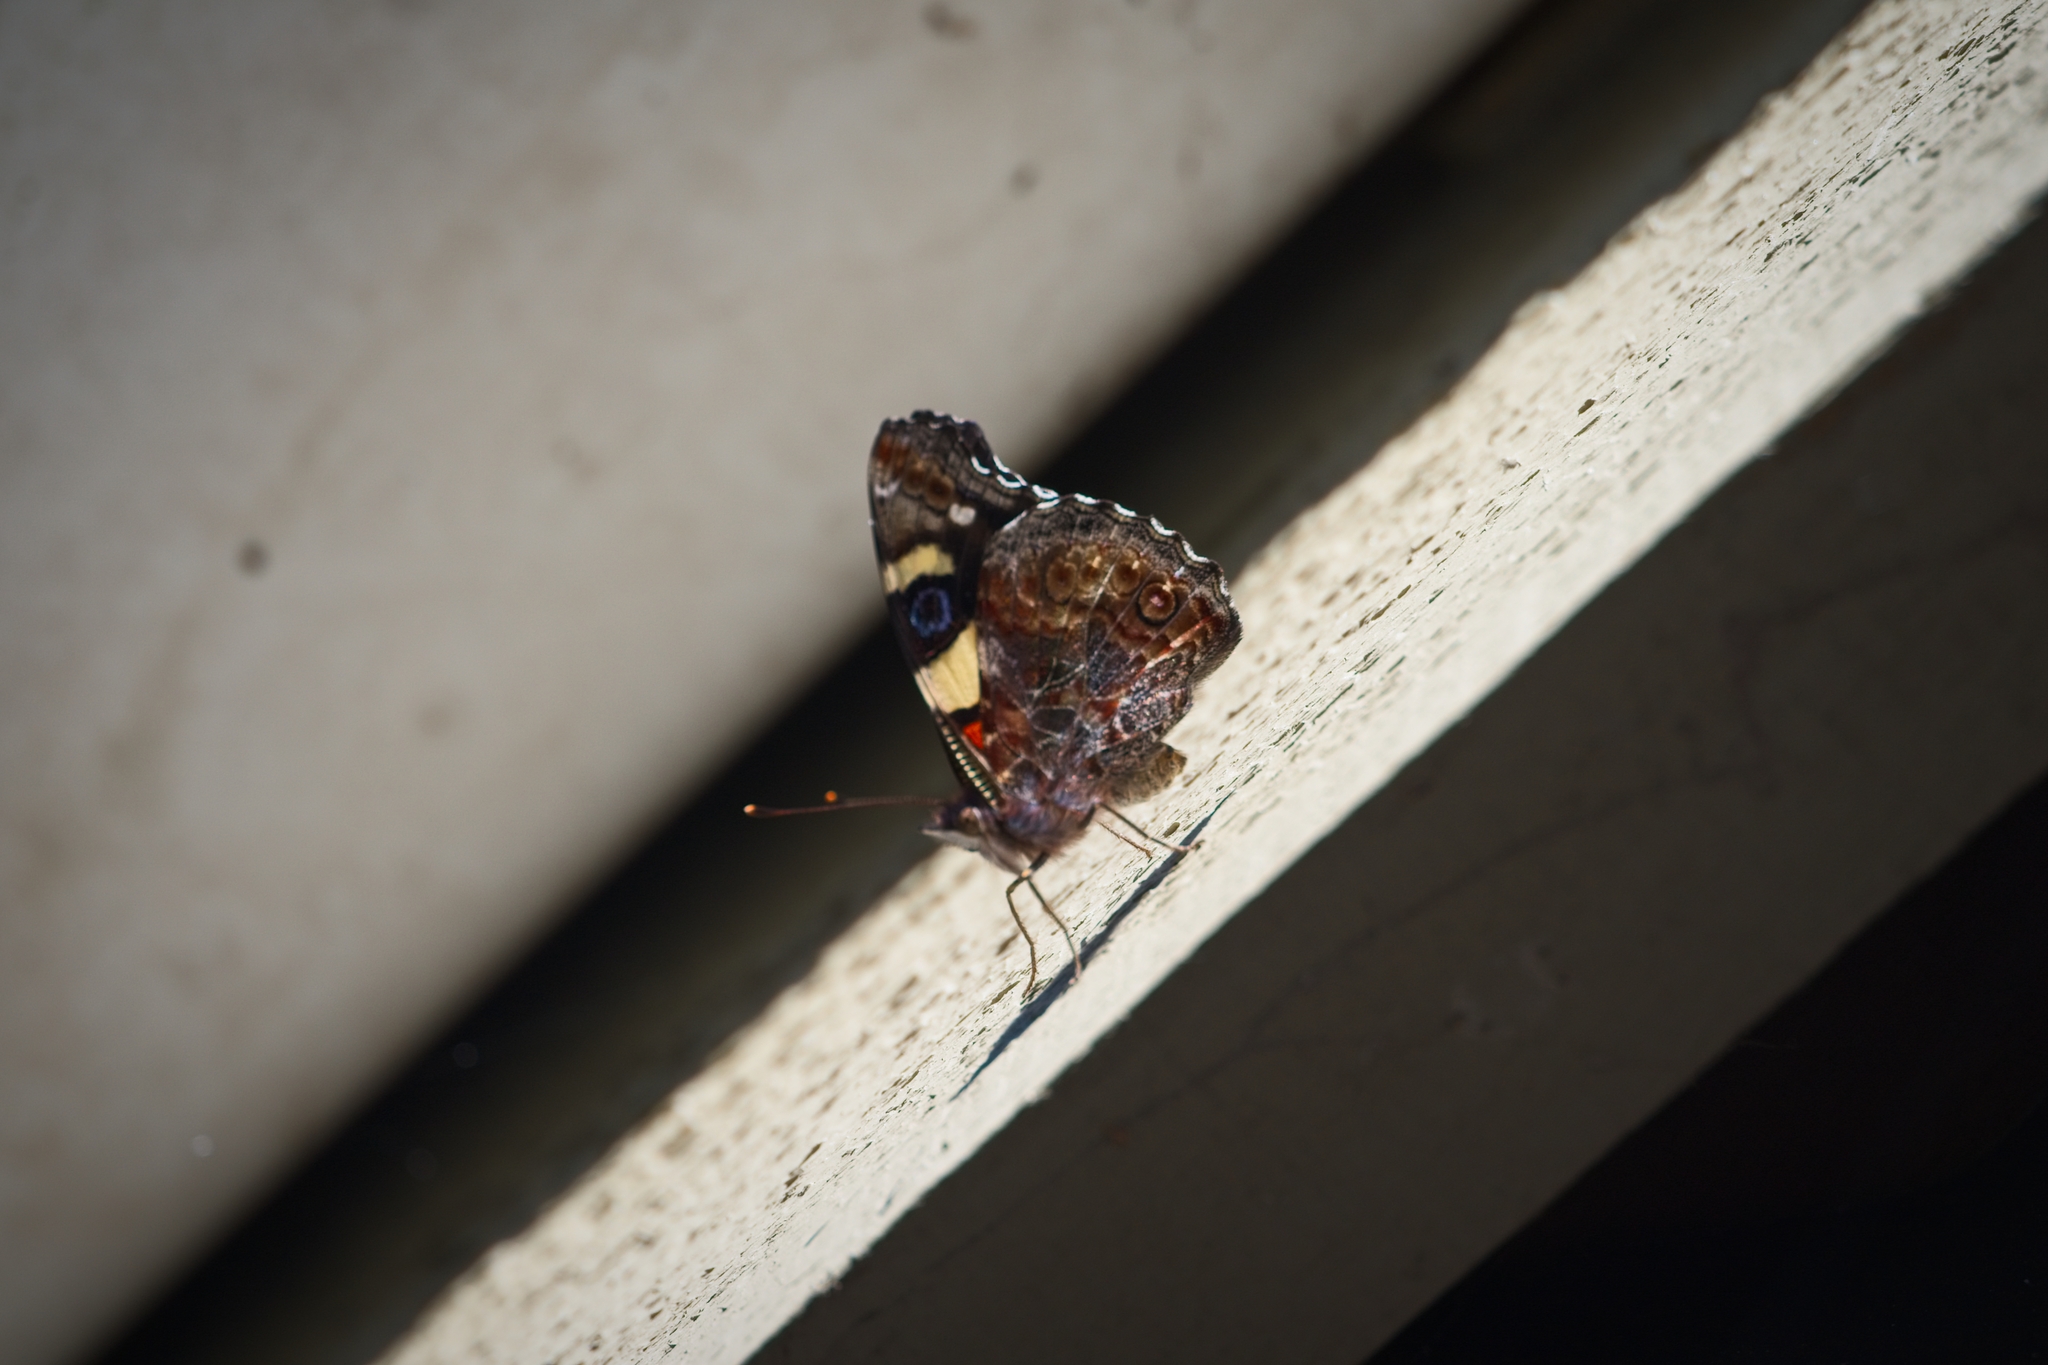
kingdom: Animalia
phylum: Arthropoda
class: Insecta
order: Lepidoptera
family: Nymphalidae
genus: Vanessa
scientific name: Vanessa itea
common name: Yellow admiral
